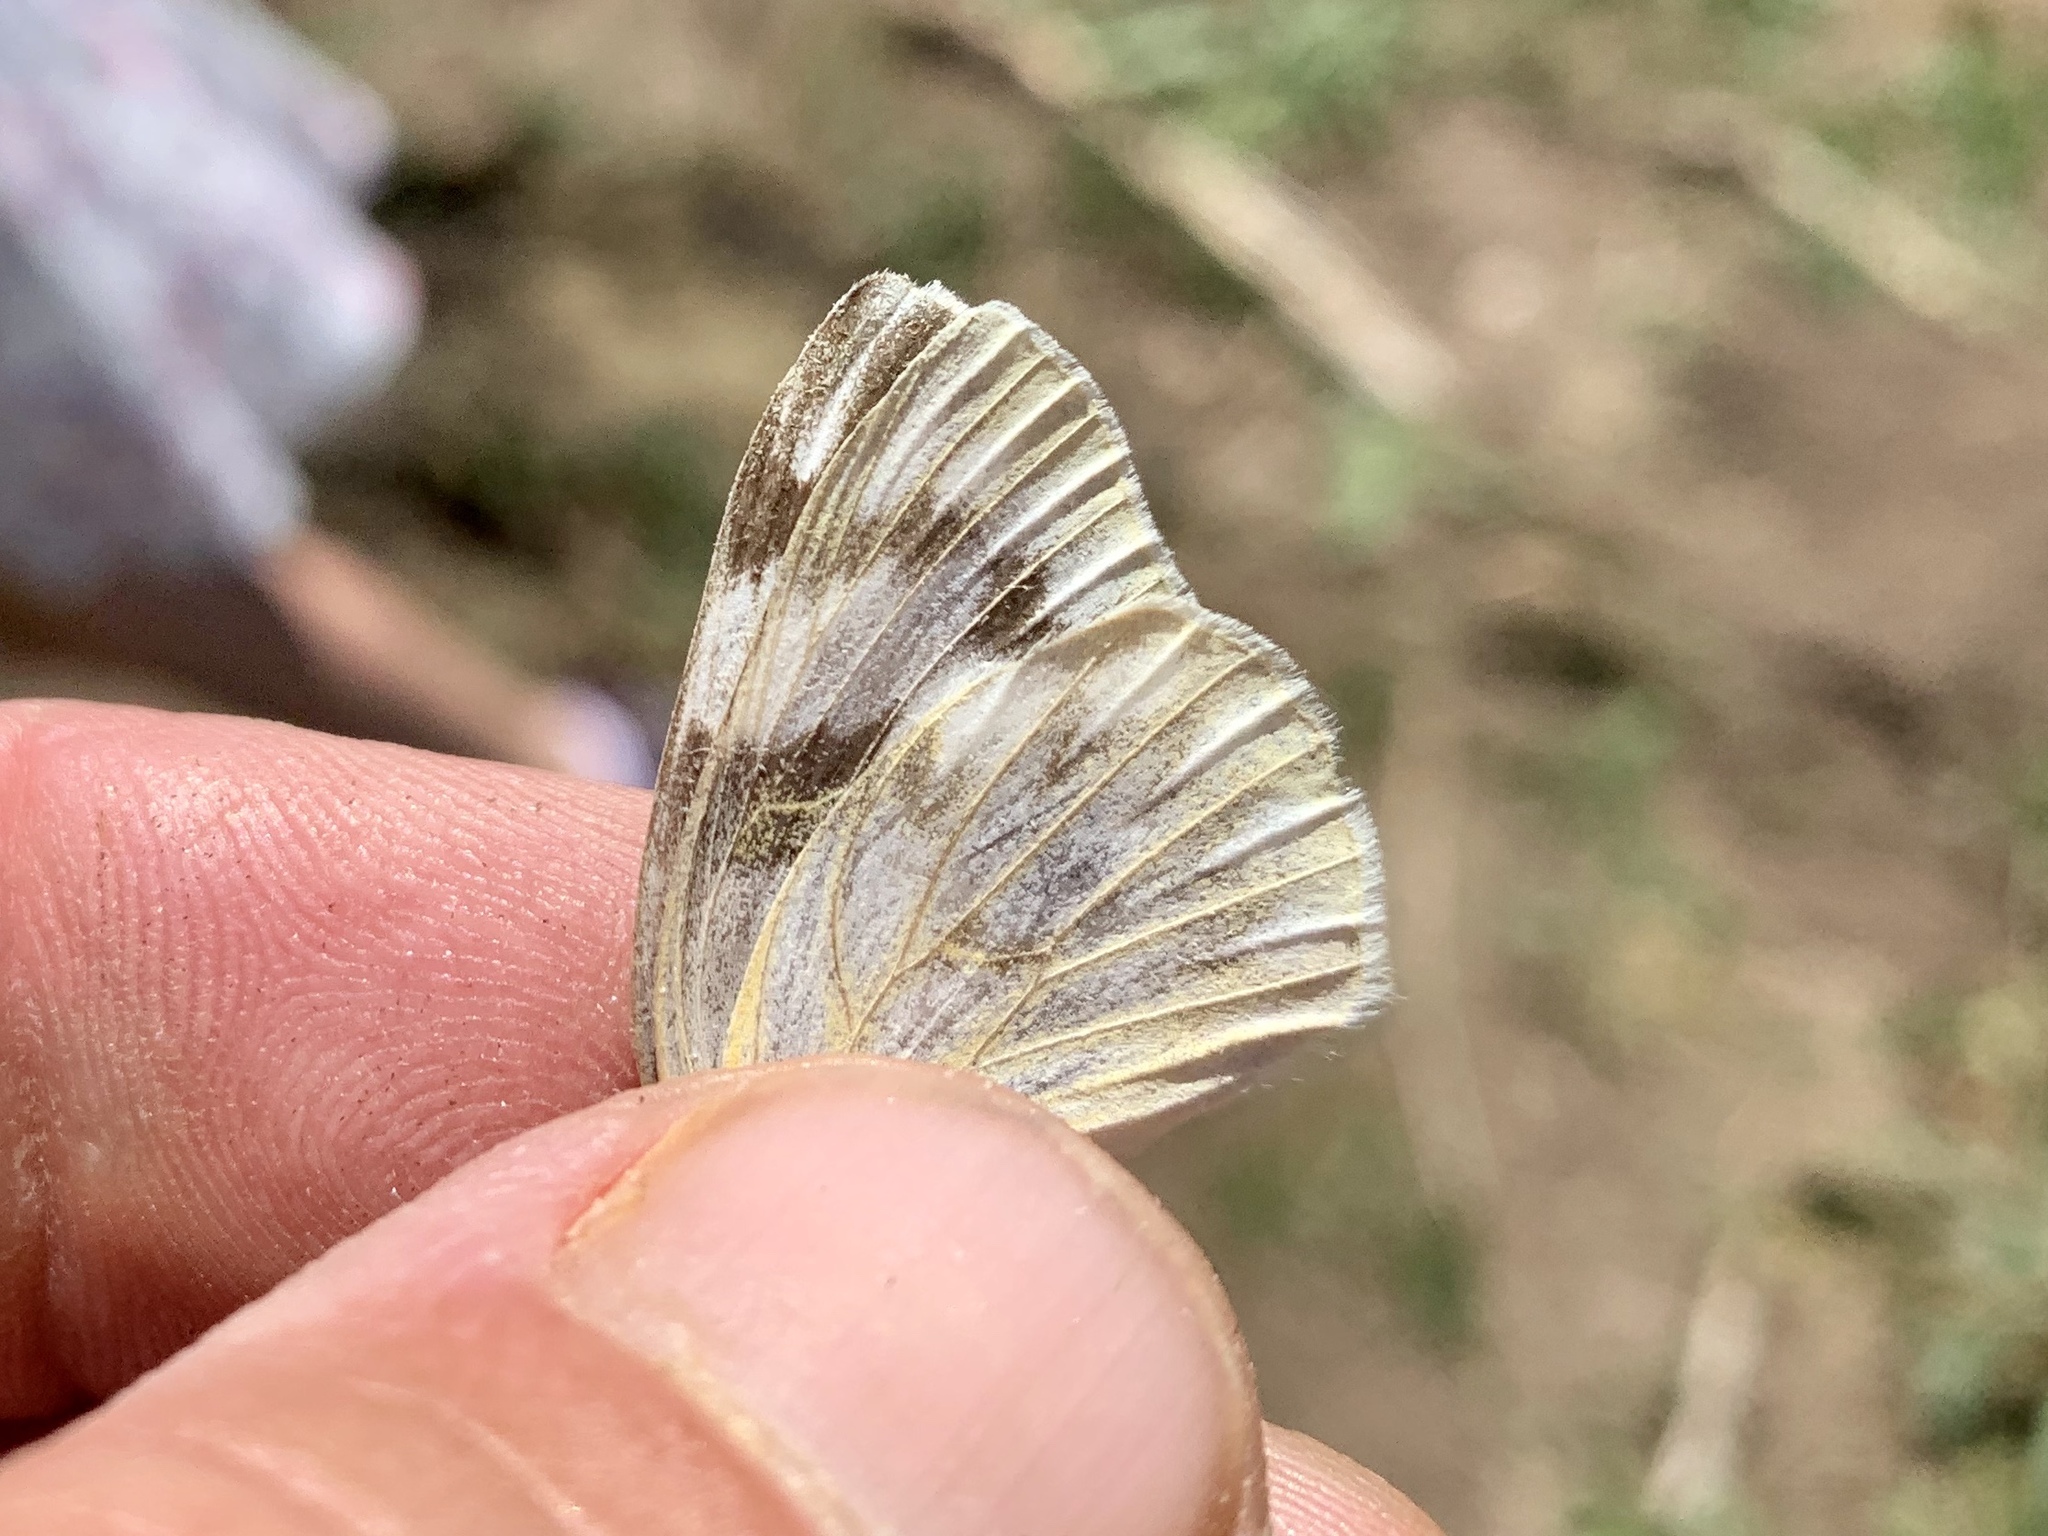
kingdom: Animalia
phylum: Arthropoda
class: Insecta
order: Lepidoptera
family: Pieridae
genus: Pontia
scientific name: Pontia protodice
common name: Checkered white
